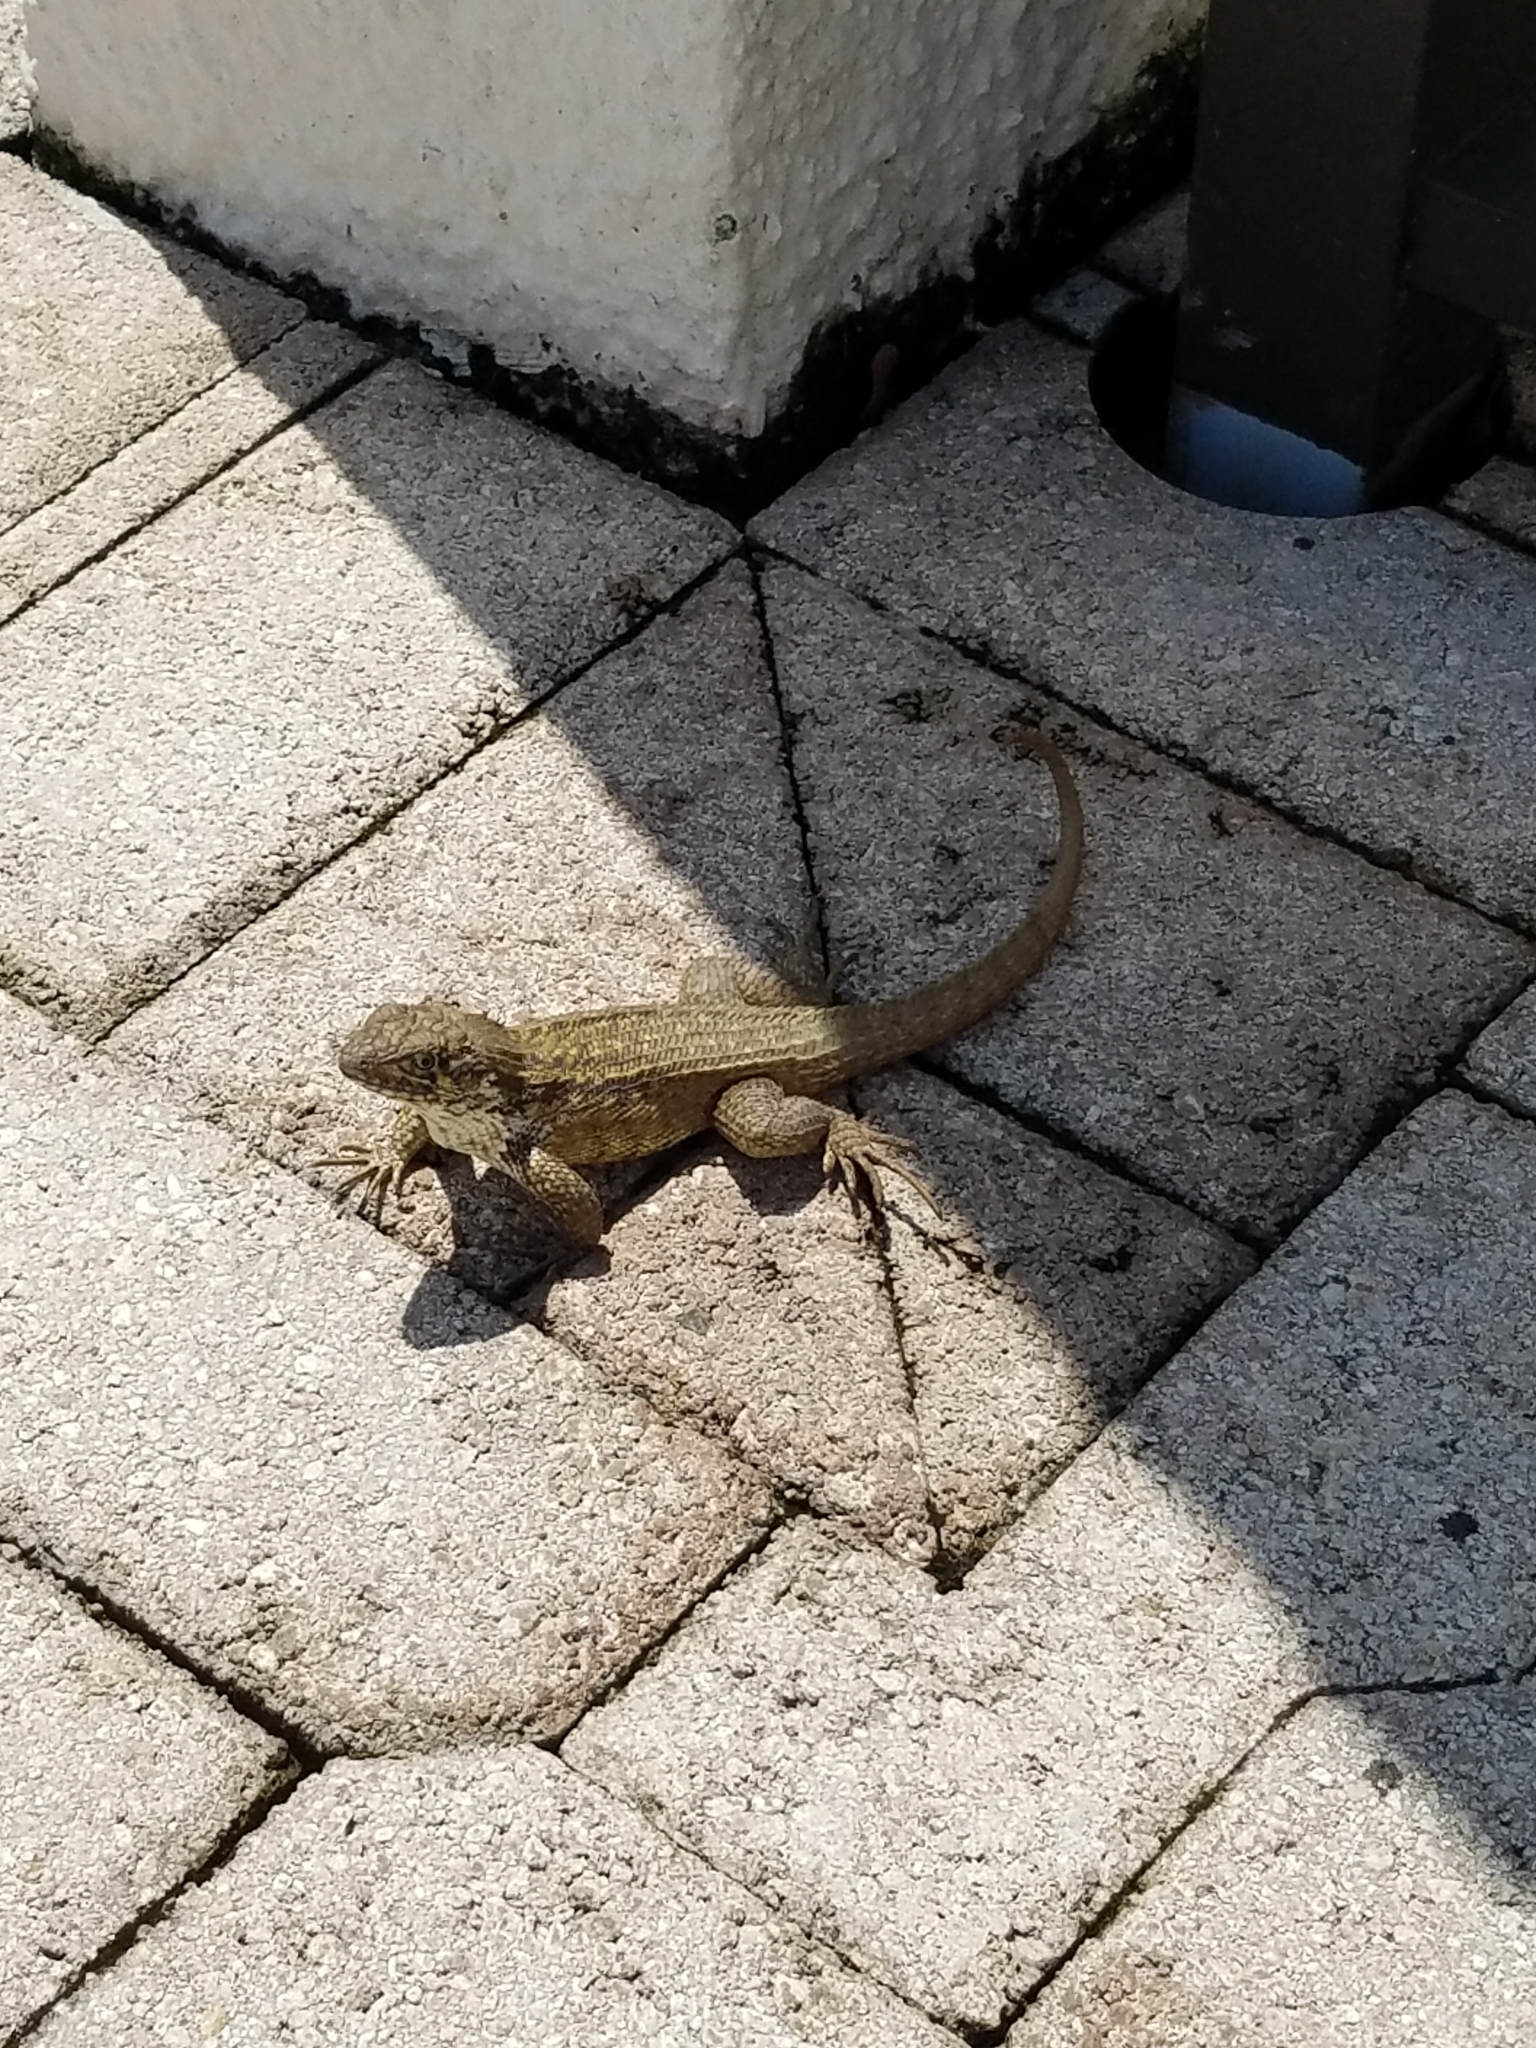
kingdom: Animalia
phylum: Chordata
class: Squamata
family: Leiocephalidae
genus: Leiocephalus
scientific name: Leiocephalus carinatus
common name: Northern curly-tailed lizard
